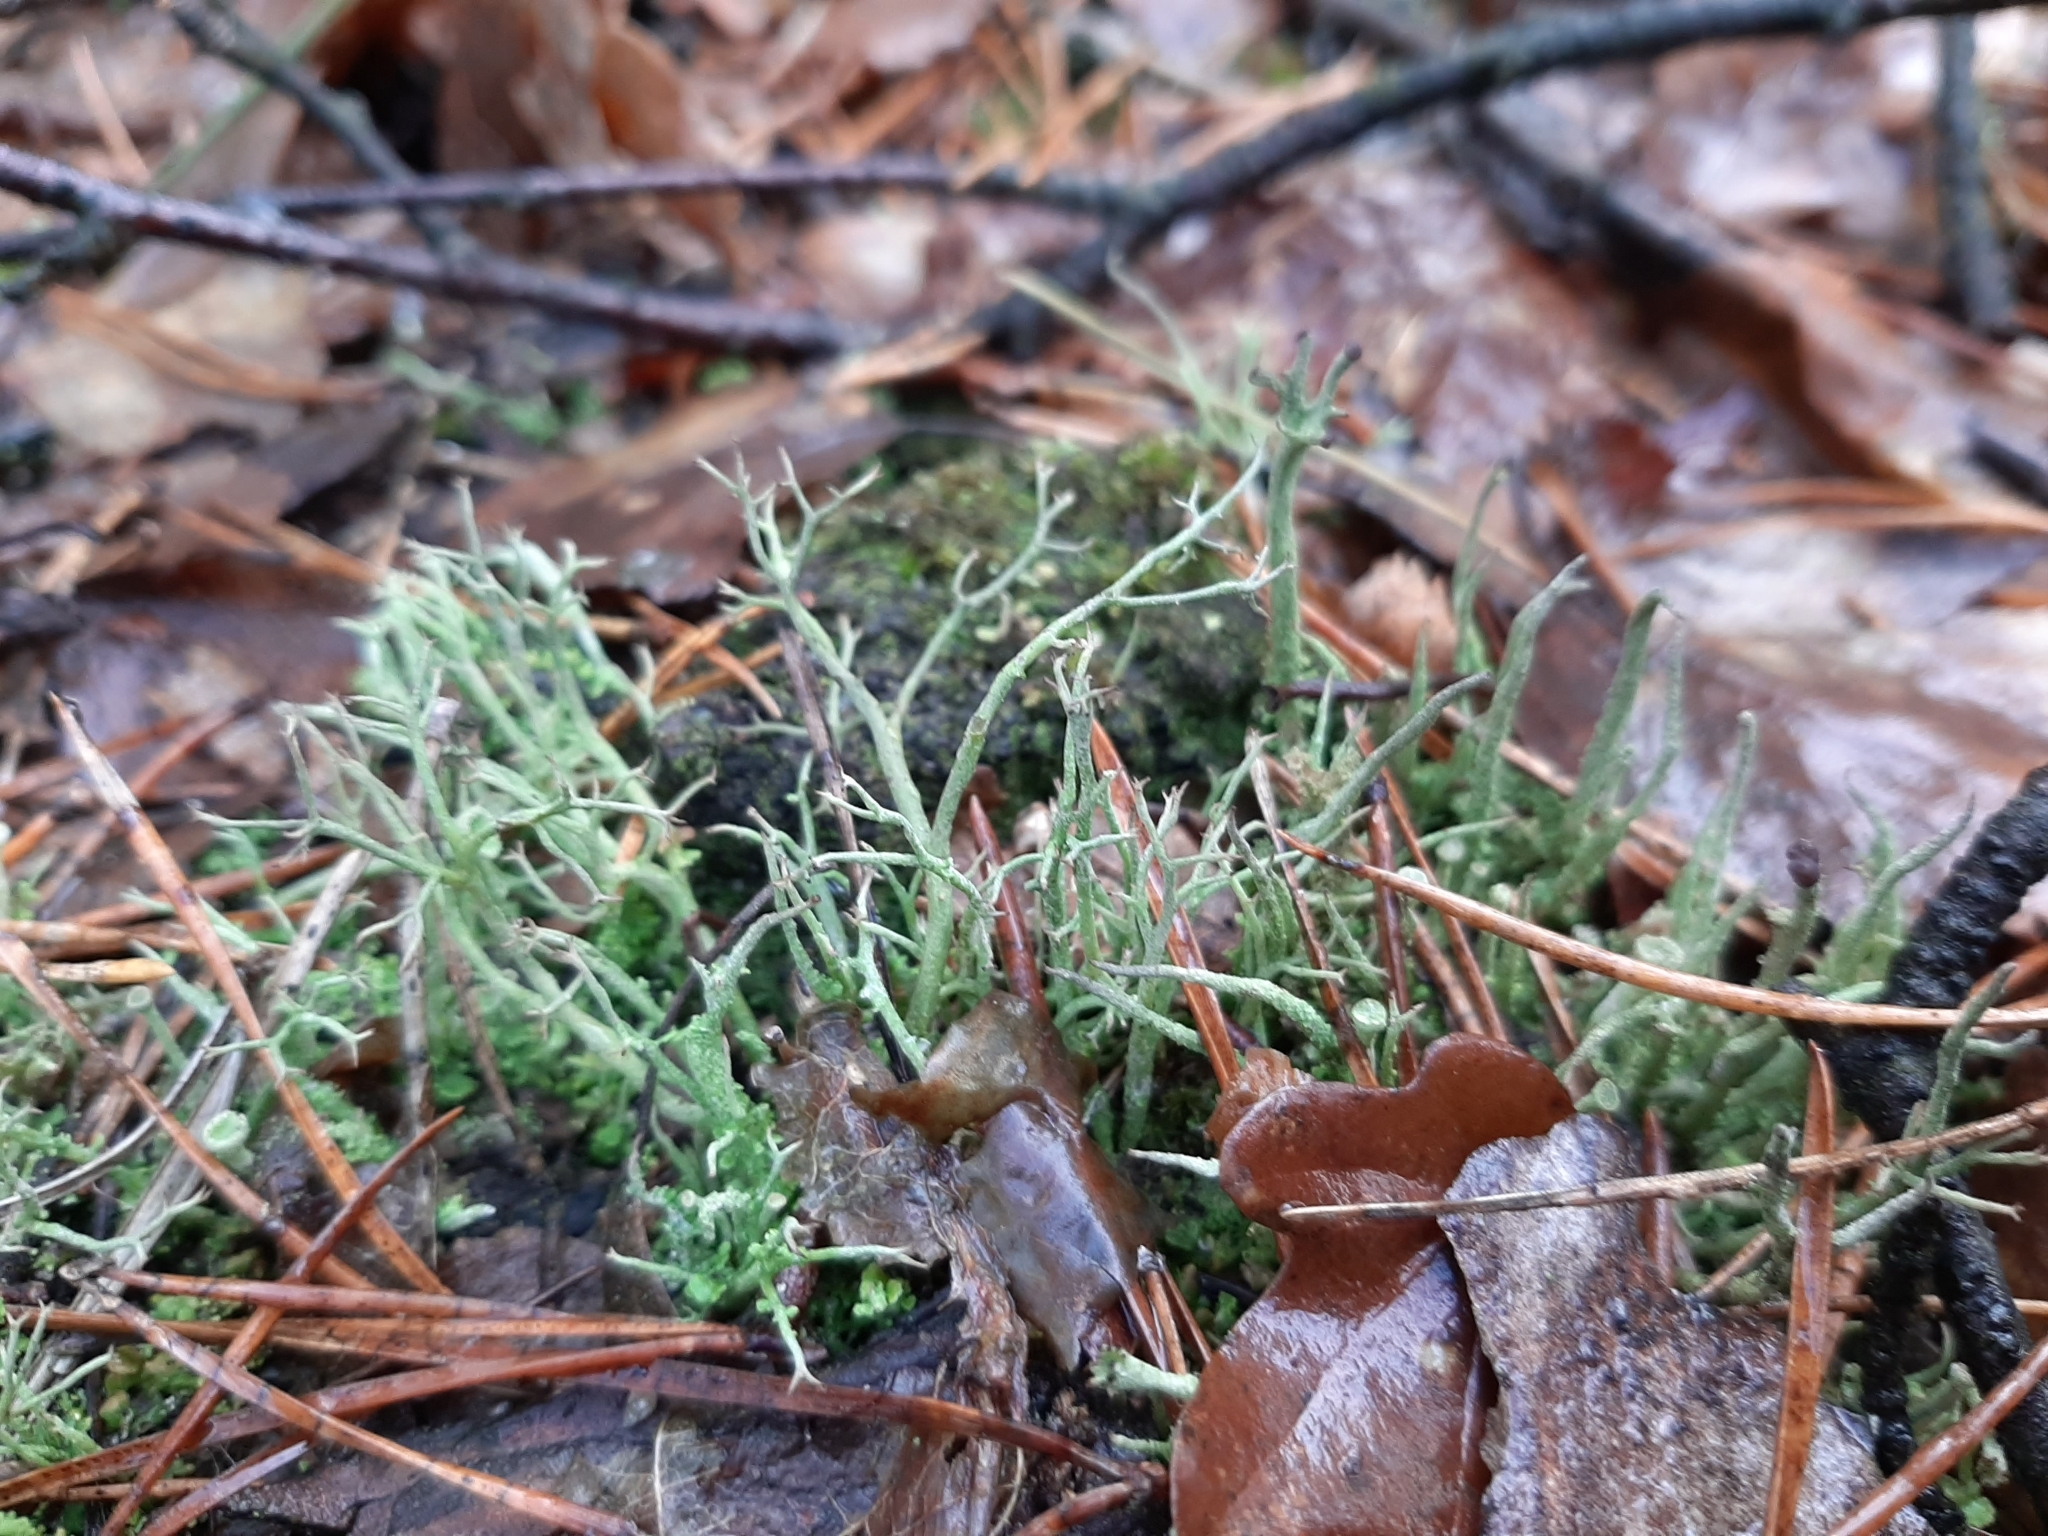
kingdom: Fungi
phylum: Ascomycota
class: Lecanoromycetes
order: Lecanorales
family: Cladoniaceae
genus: Cladonia
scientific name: Cladonia furcata
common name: Many-forked cladonia
